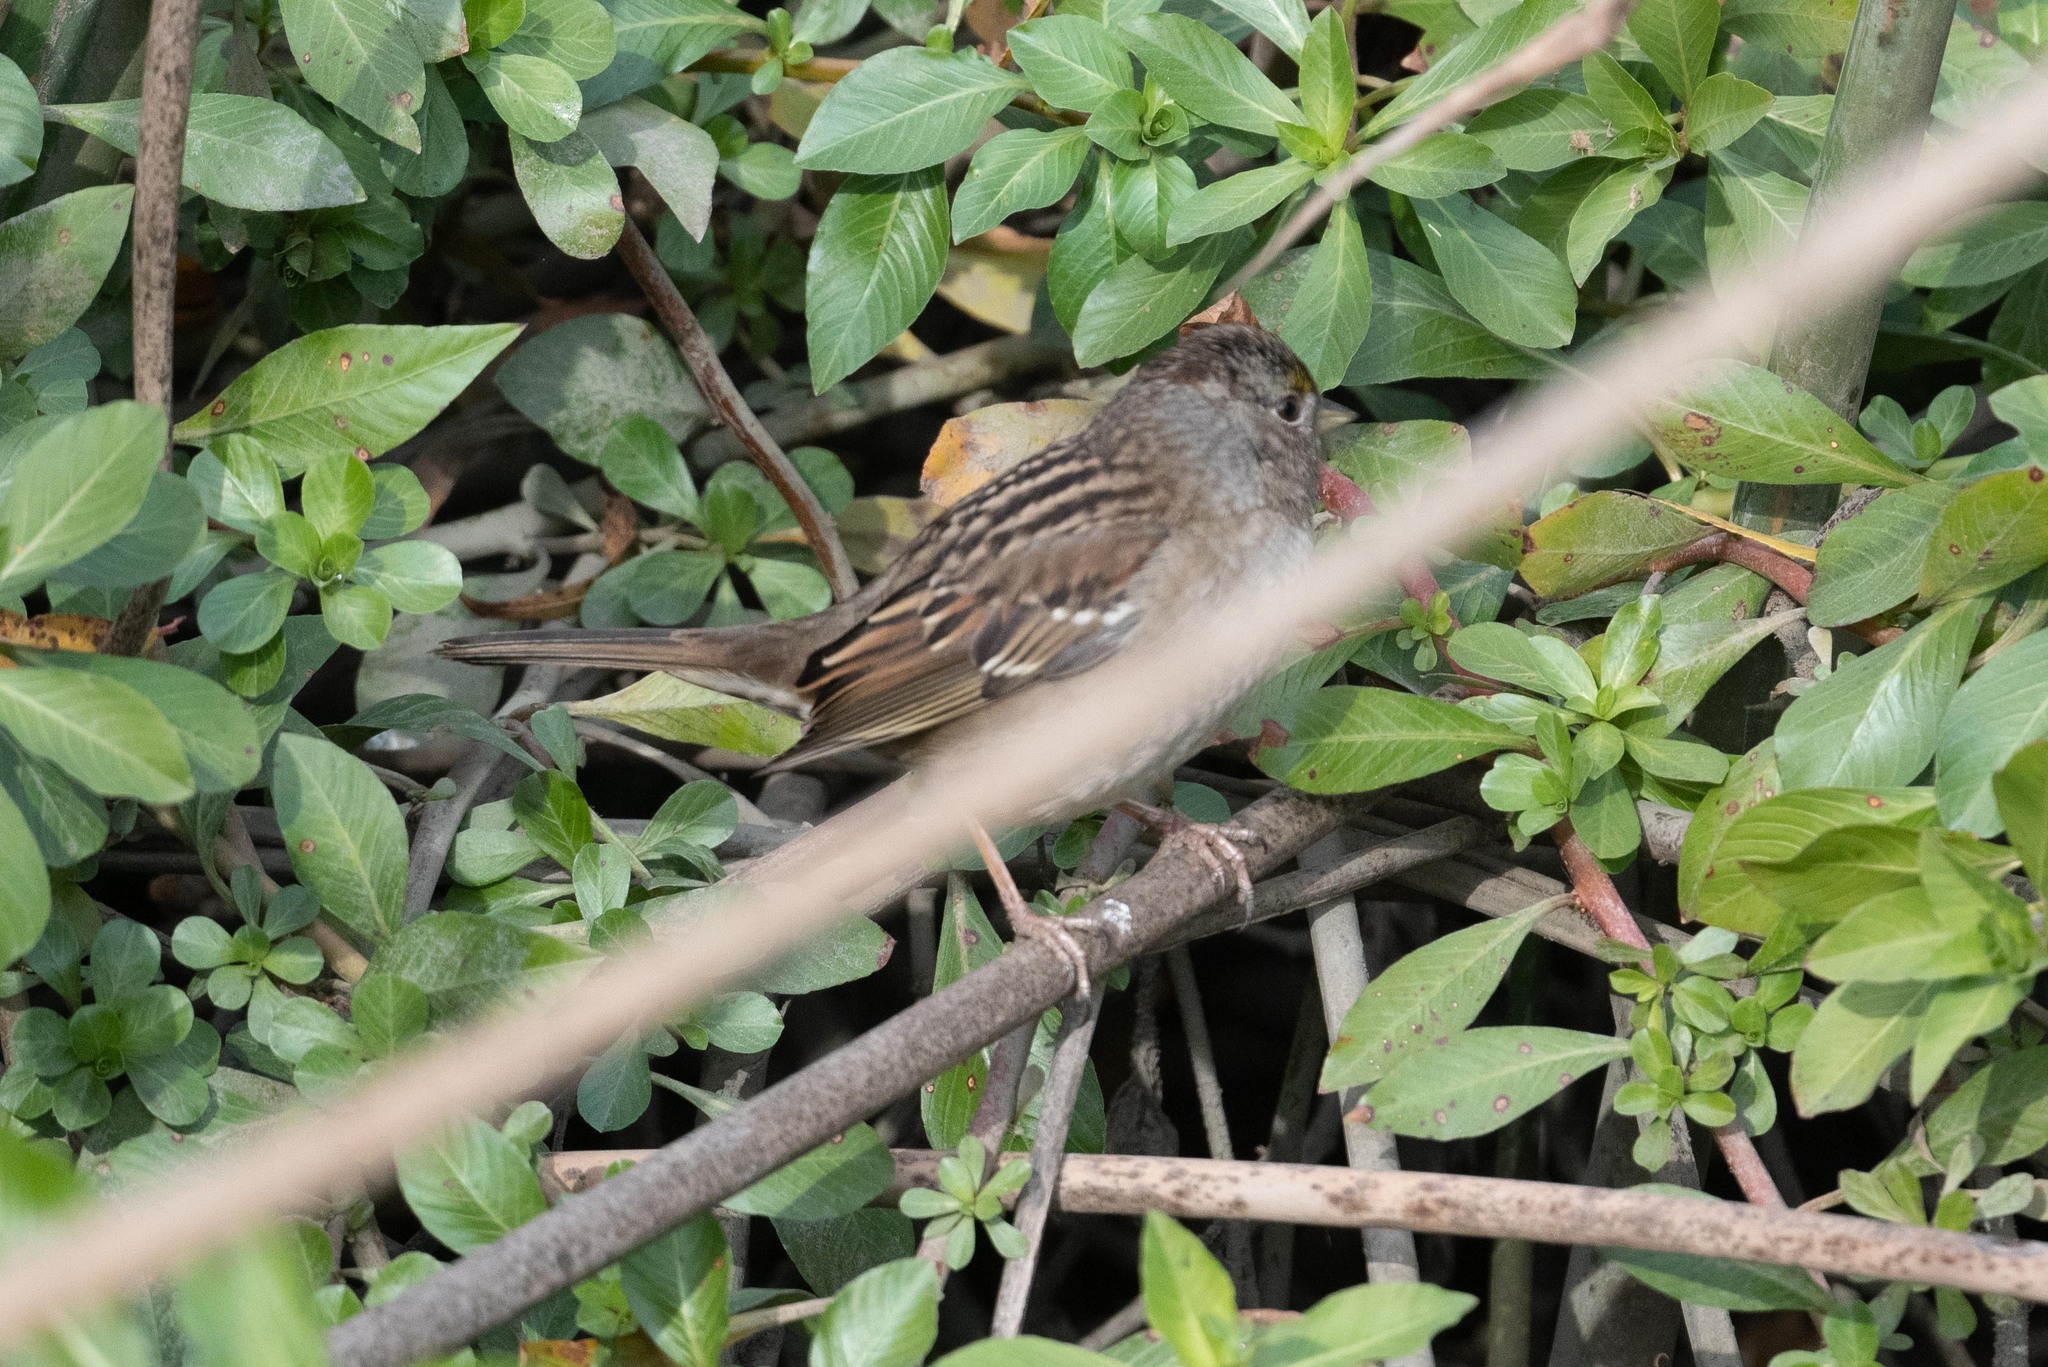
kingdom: Animalia
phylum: Chordata
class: Aves
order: Passeriformes
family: Passerellidae
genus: Zonotrichia
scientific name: Zonotrichia atricapilla
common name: Golden-crowned sparrow
